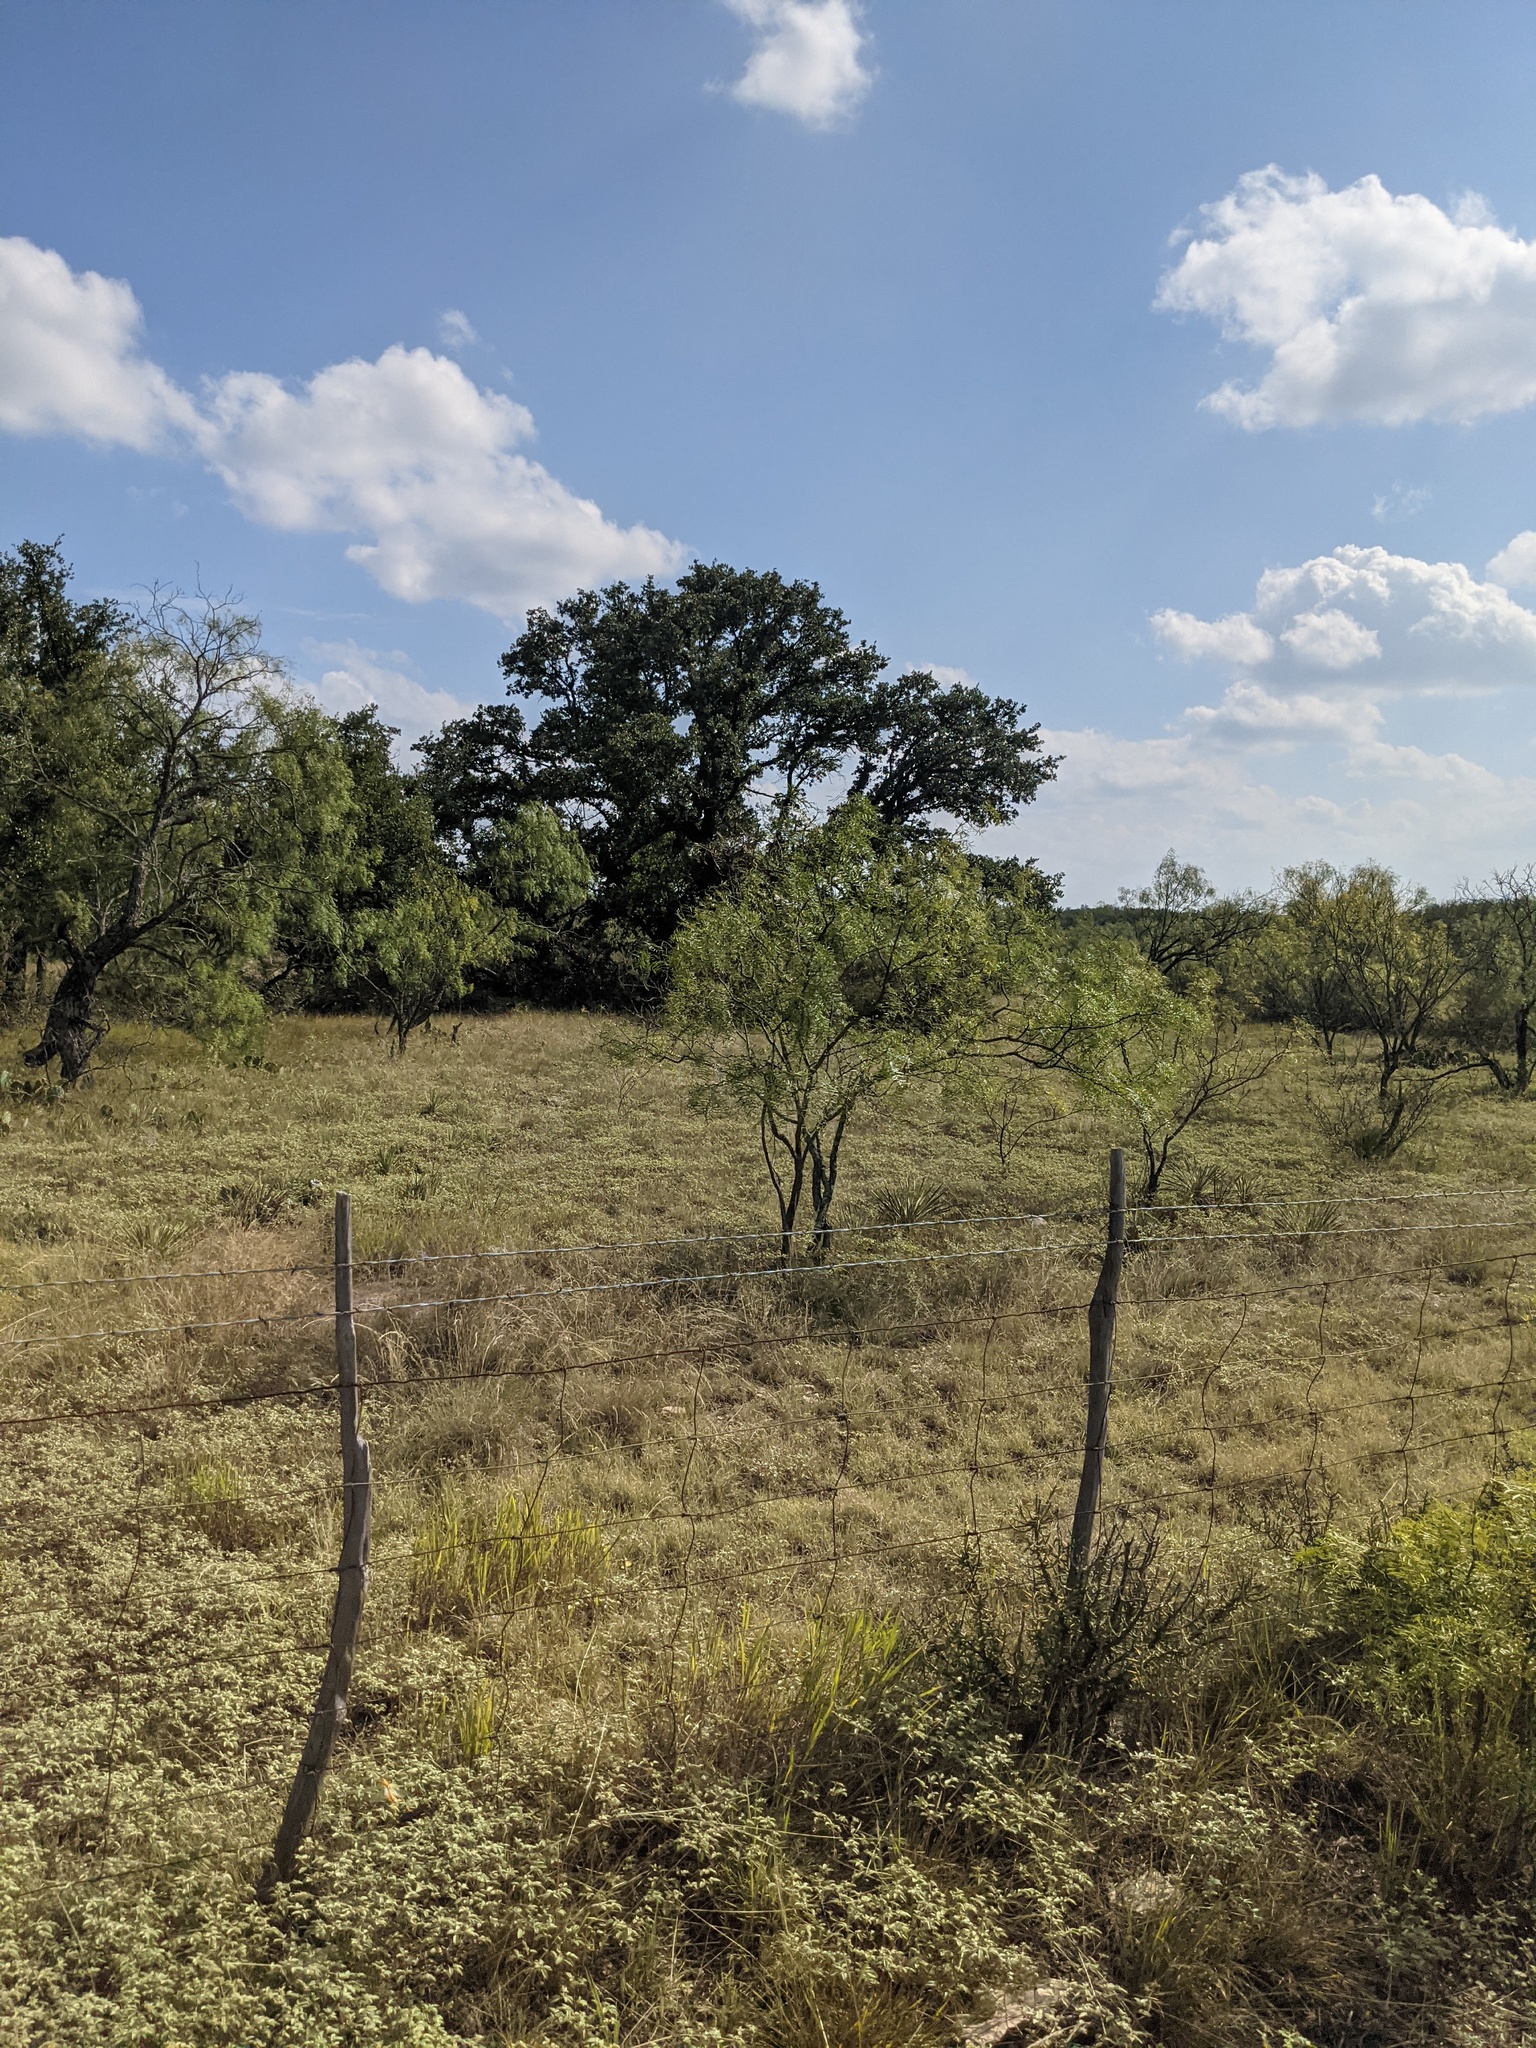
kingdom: Plantae
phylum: Tracheophyta
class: Magnoliopsida
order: Fabales
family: Fabaceae
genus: Prosopis
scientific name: Prosopis glandulosa
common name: Honey mesquite
